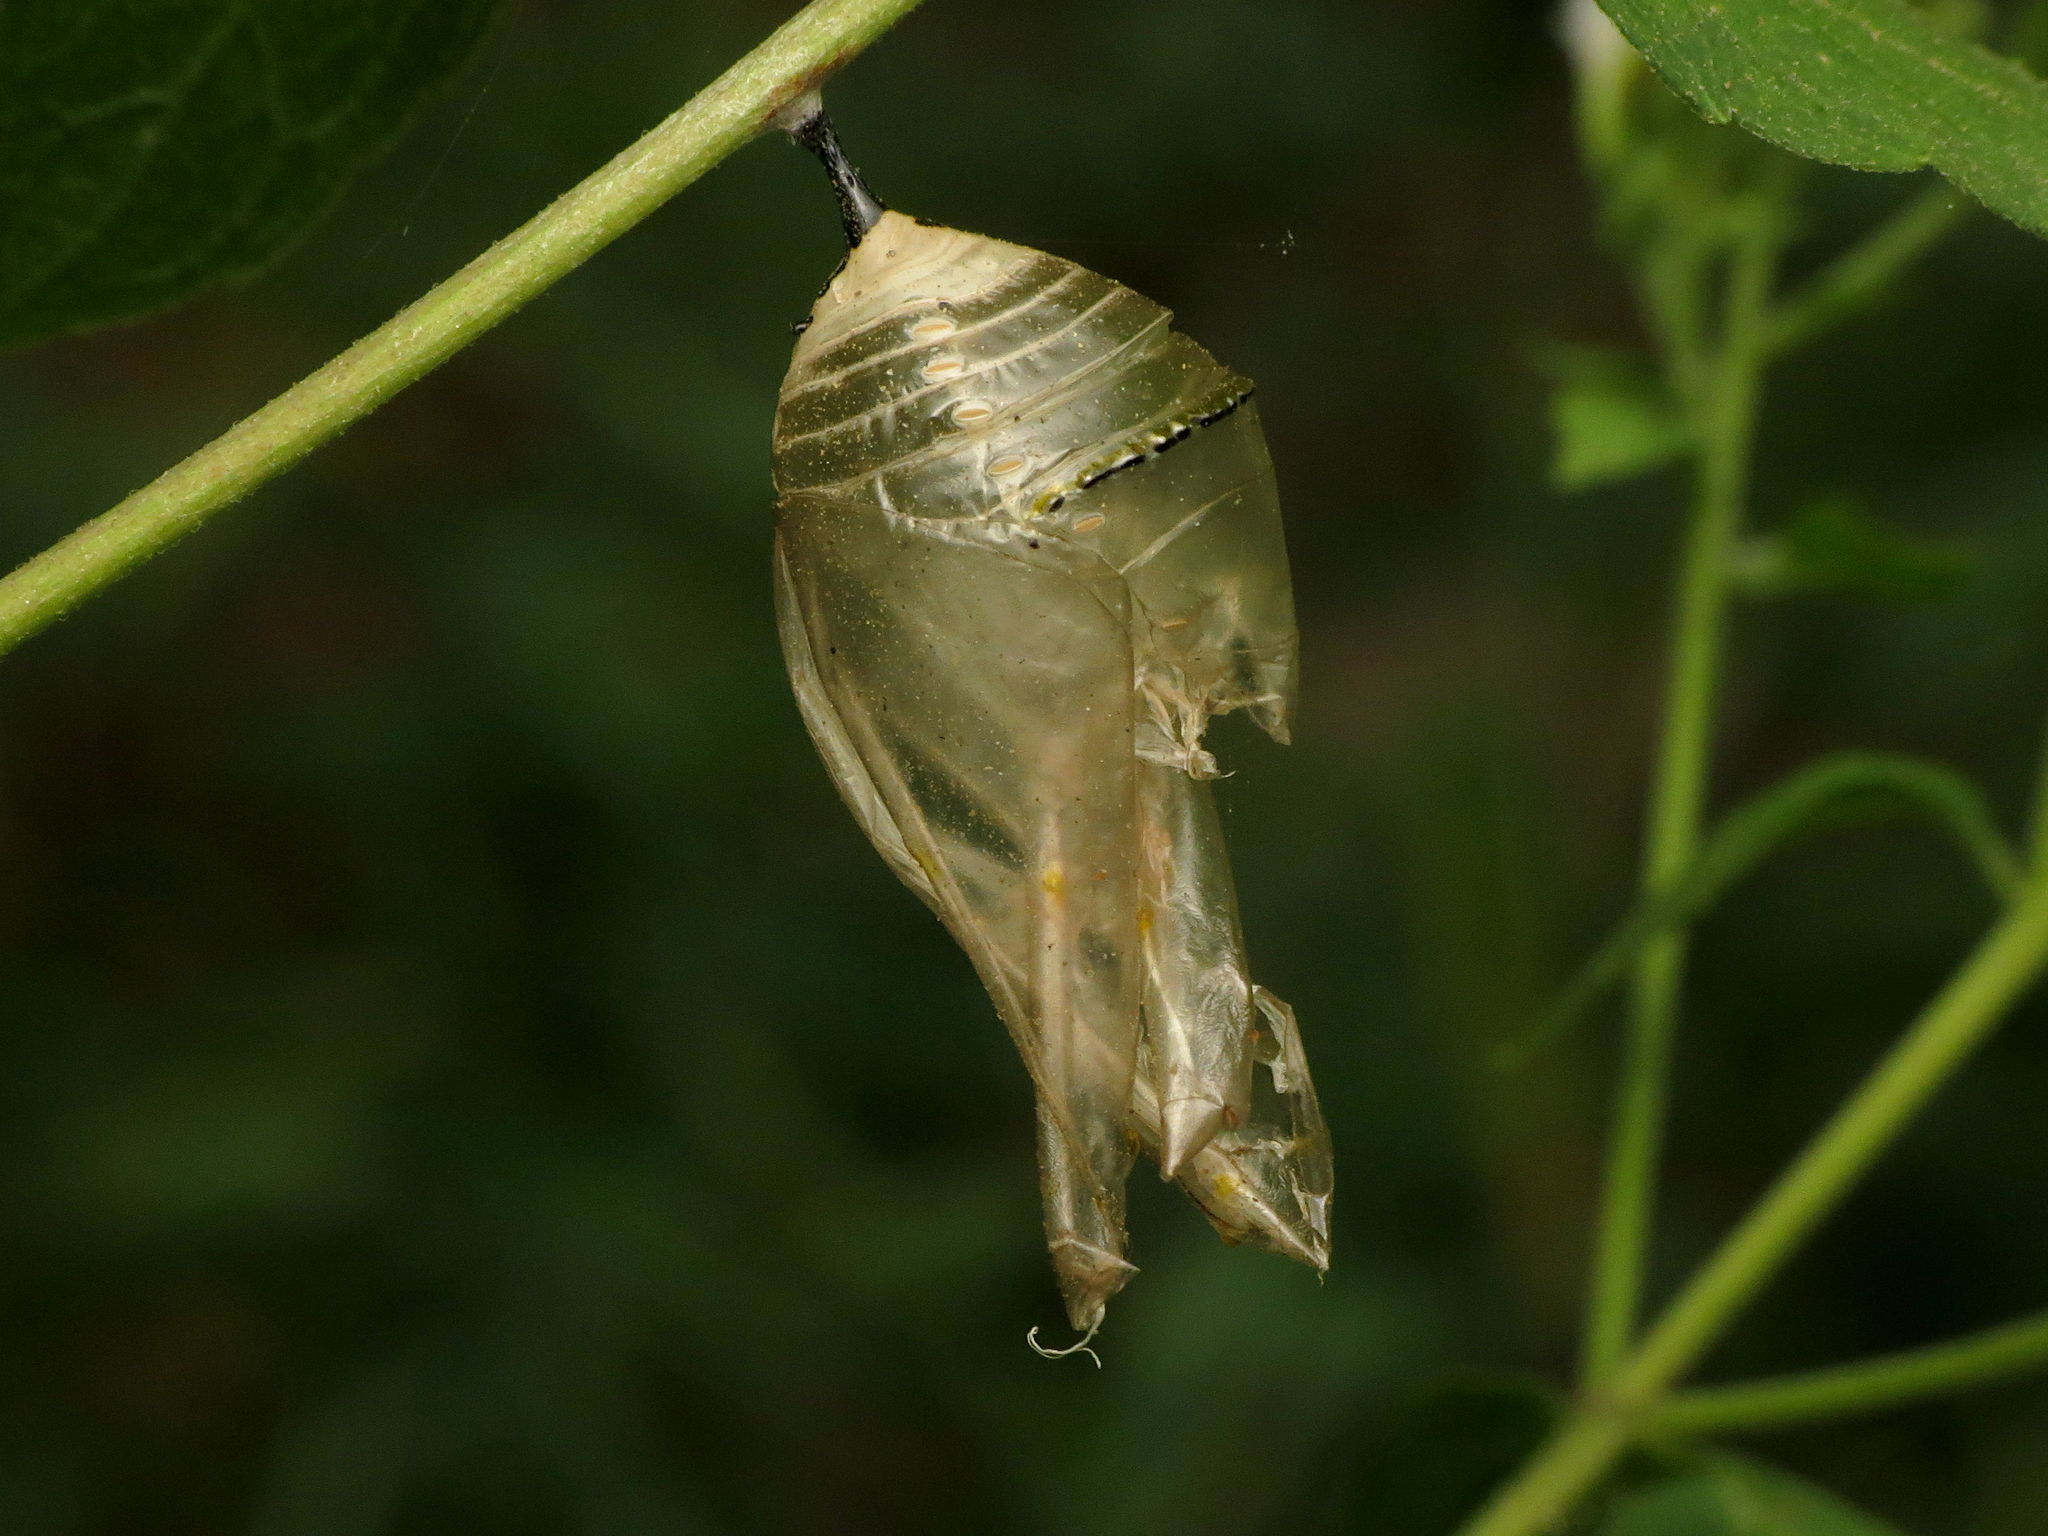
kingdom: Animalia
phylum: Arthropoda
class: Insecta
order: Lepidoptera
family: Nymphalidae
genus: Danaus
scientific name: Danaus plexippus
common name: Monarch
